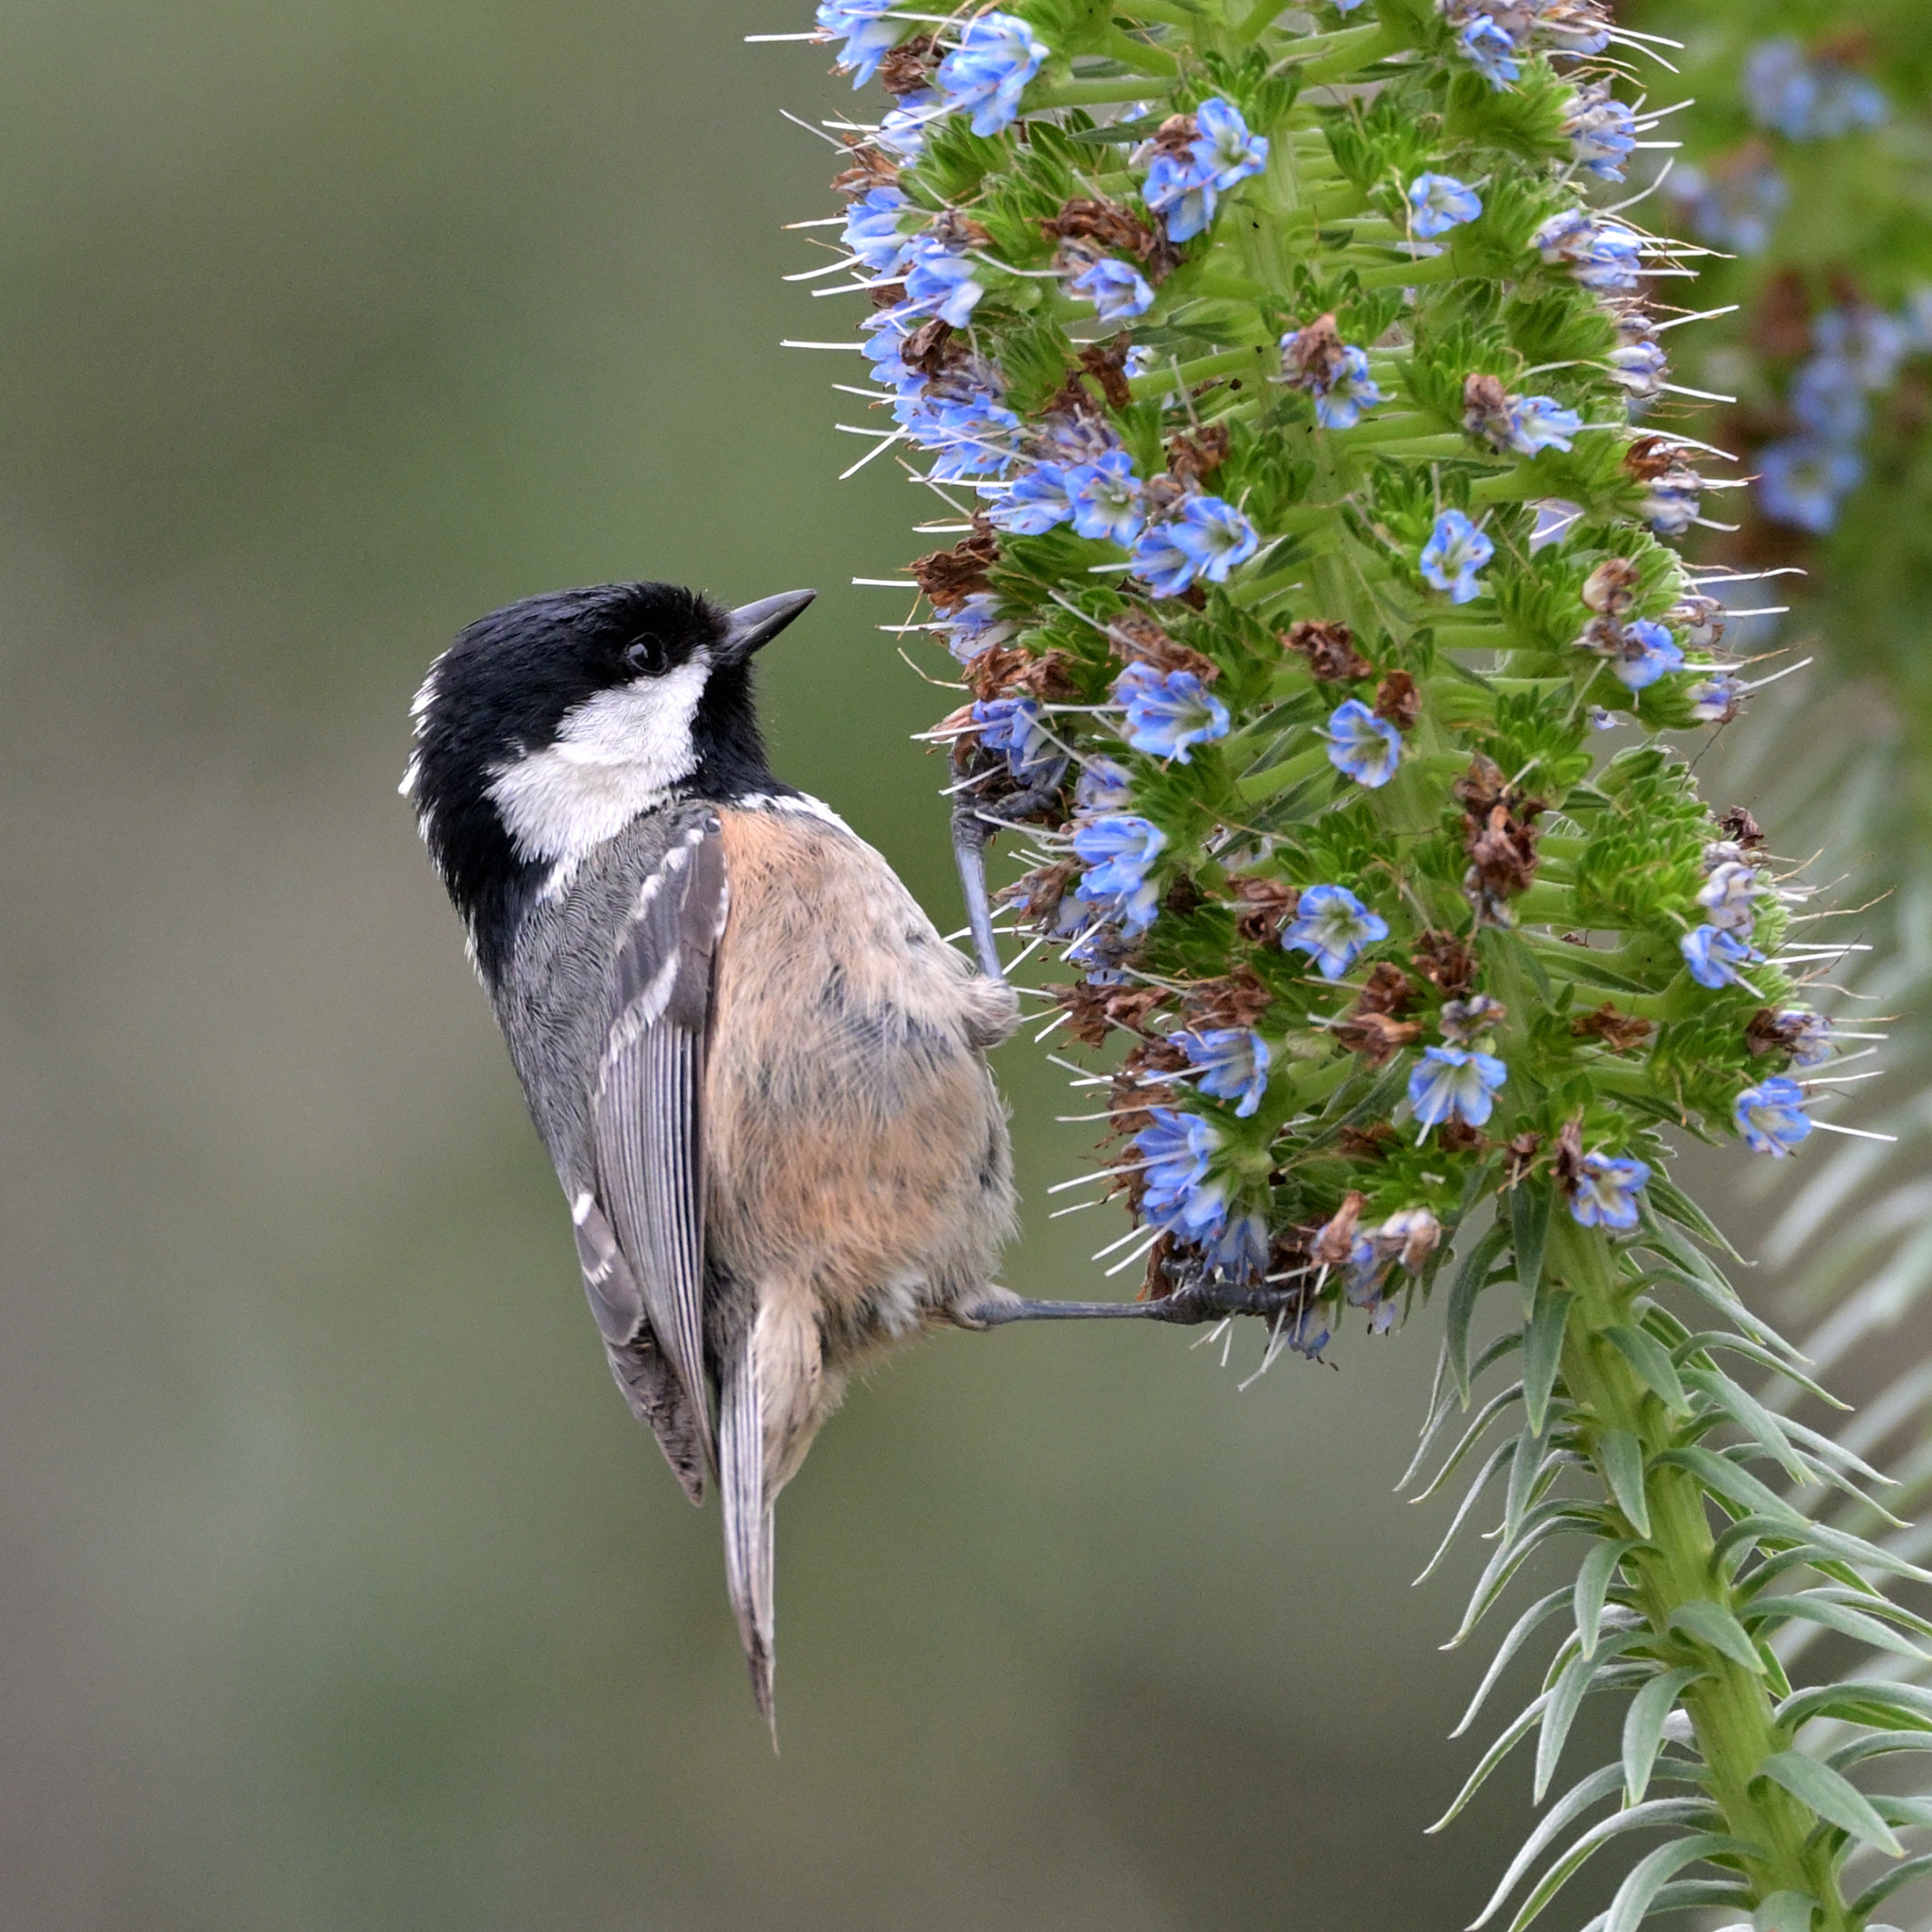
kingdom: Animalia
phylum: Chordata
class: Aves
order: Passeriformes
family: Paridae
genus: Periparus
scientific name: Periparus ater
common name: Coal tit
